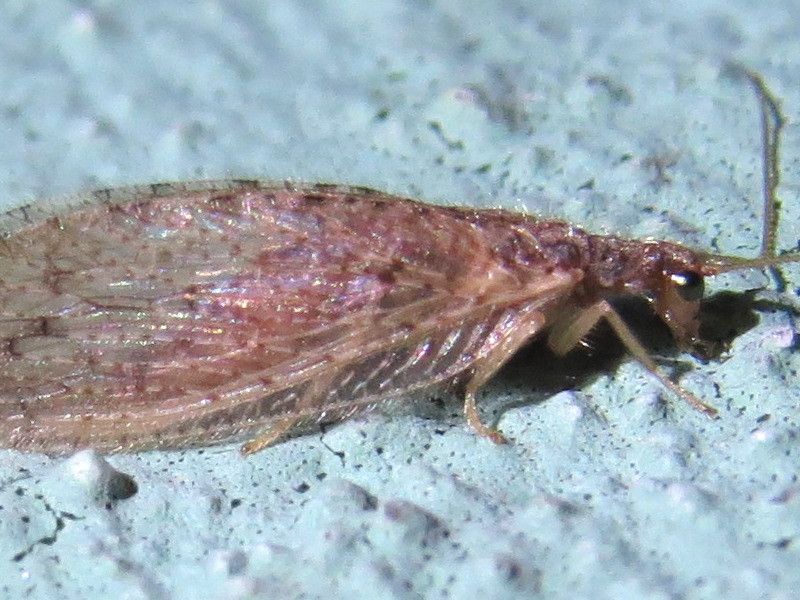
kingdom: Animalia
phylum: Arthropoda
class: Insecta
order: Neuroptera
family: Hemerobiidae
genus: Micromus
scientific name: Micromus subanticus
